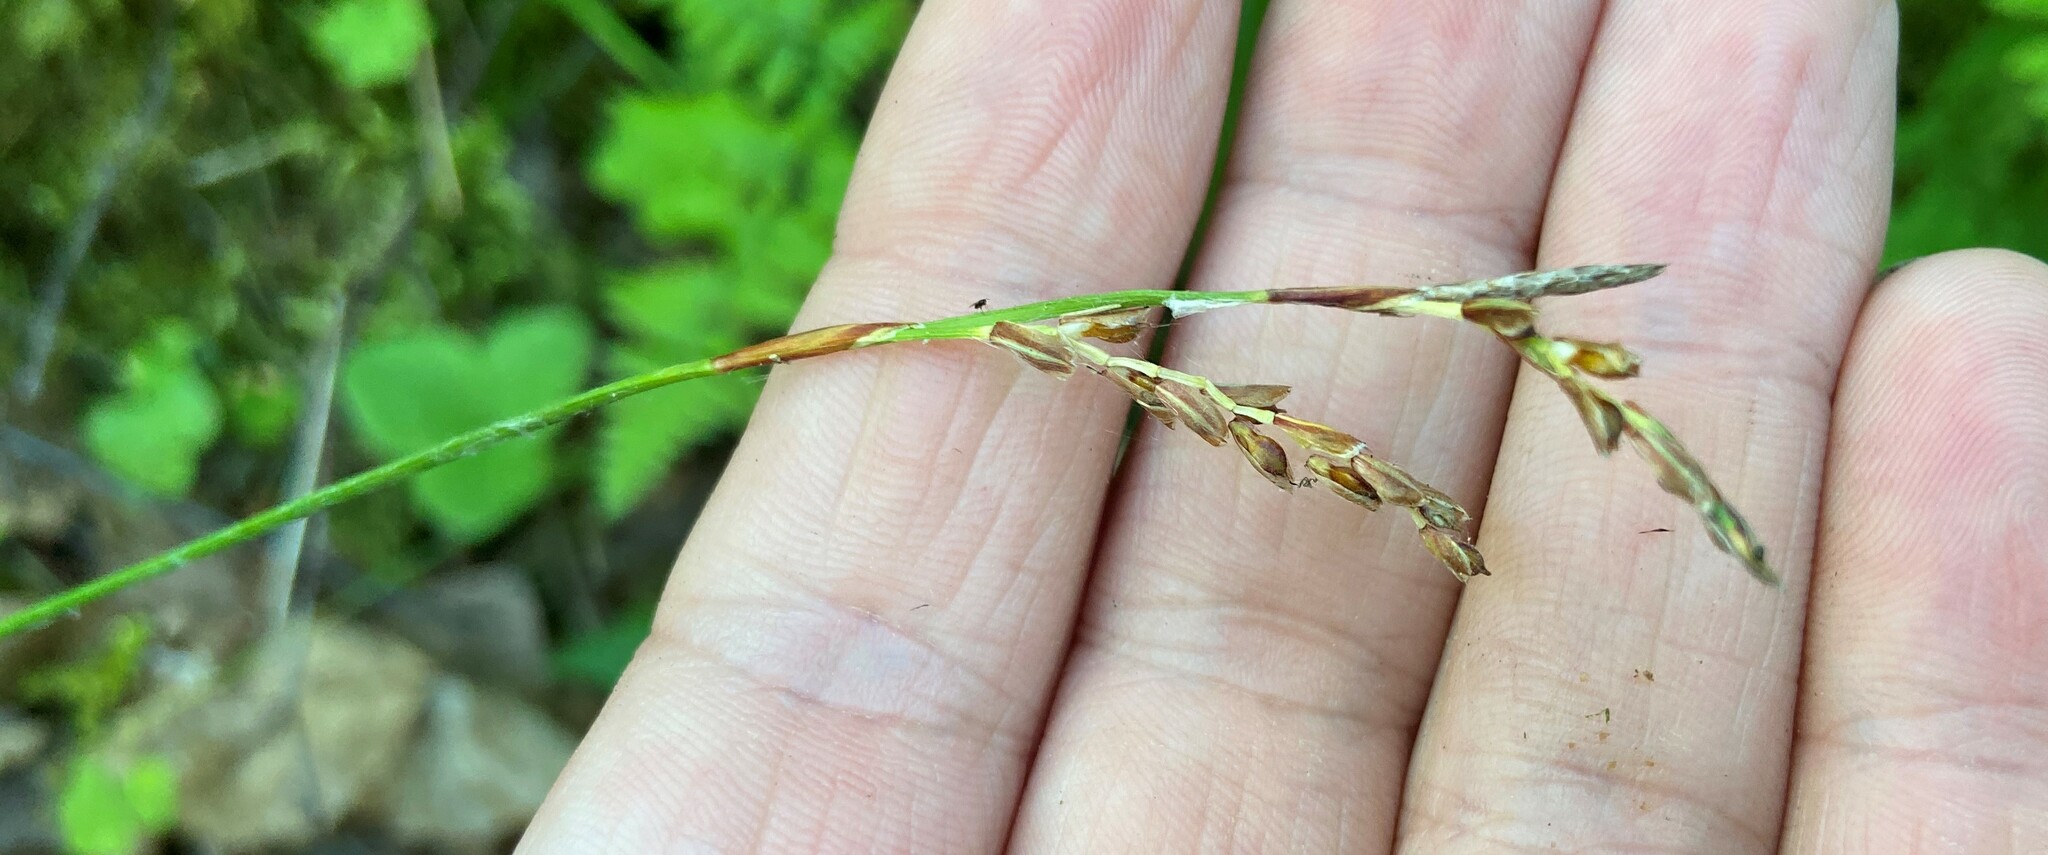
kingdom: Plantae
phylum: Tracheophyta
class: Liliopsida
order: Poales
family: Cyperaceae
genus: Carex
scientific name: Carex digitata
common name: Fingered sedge
